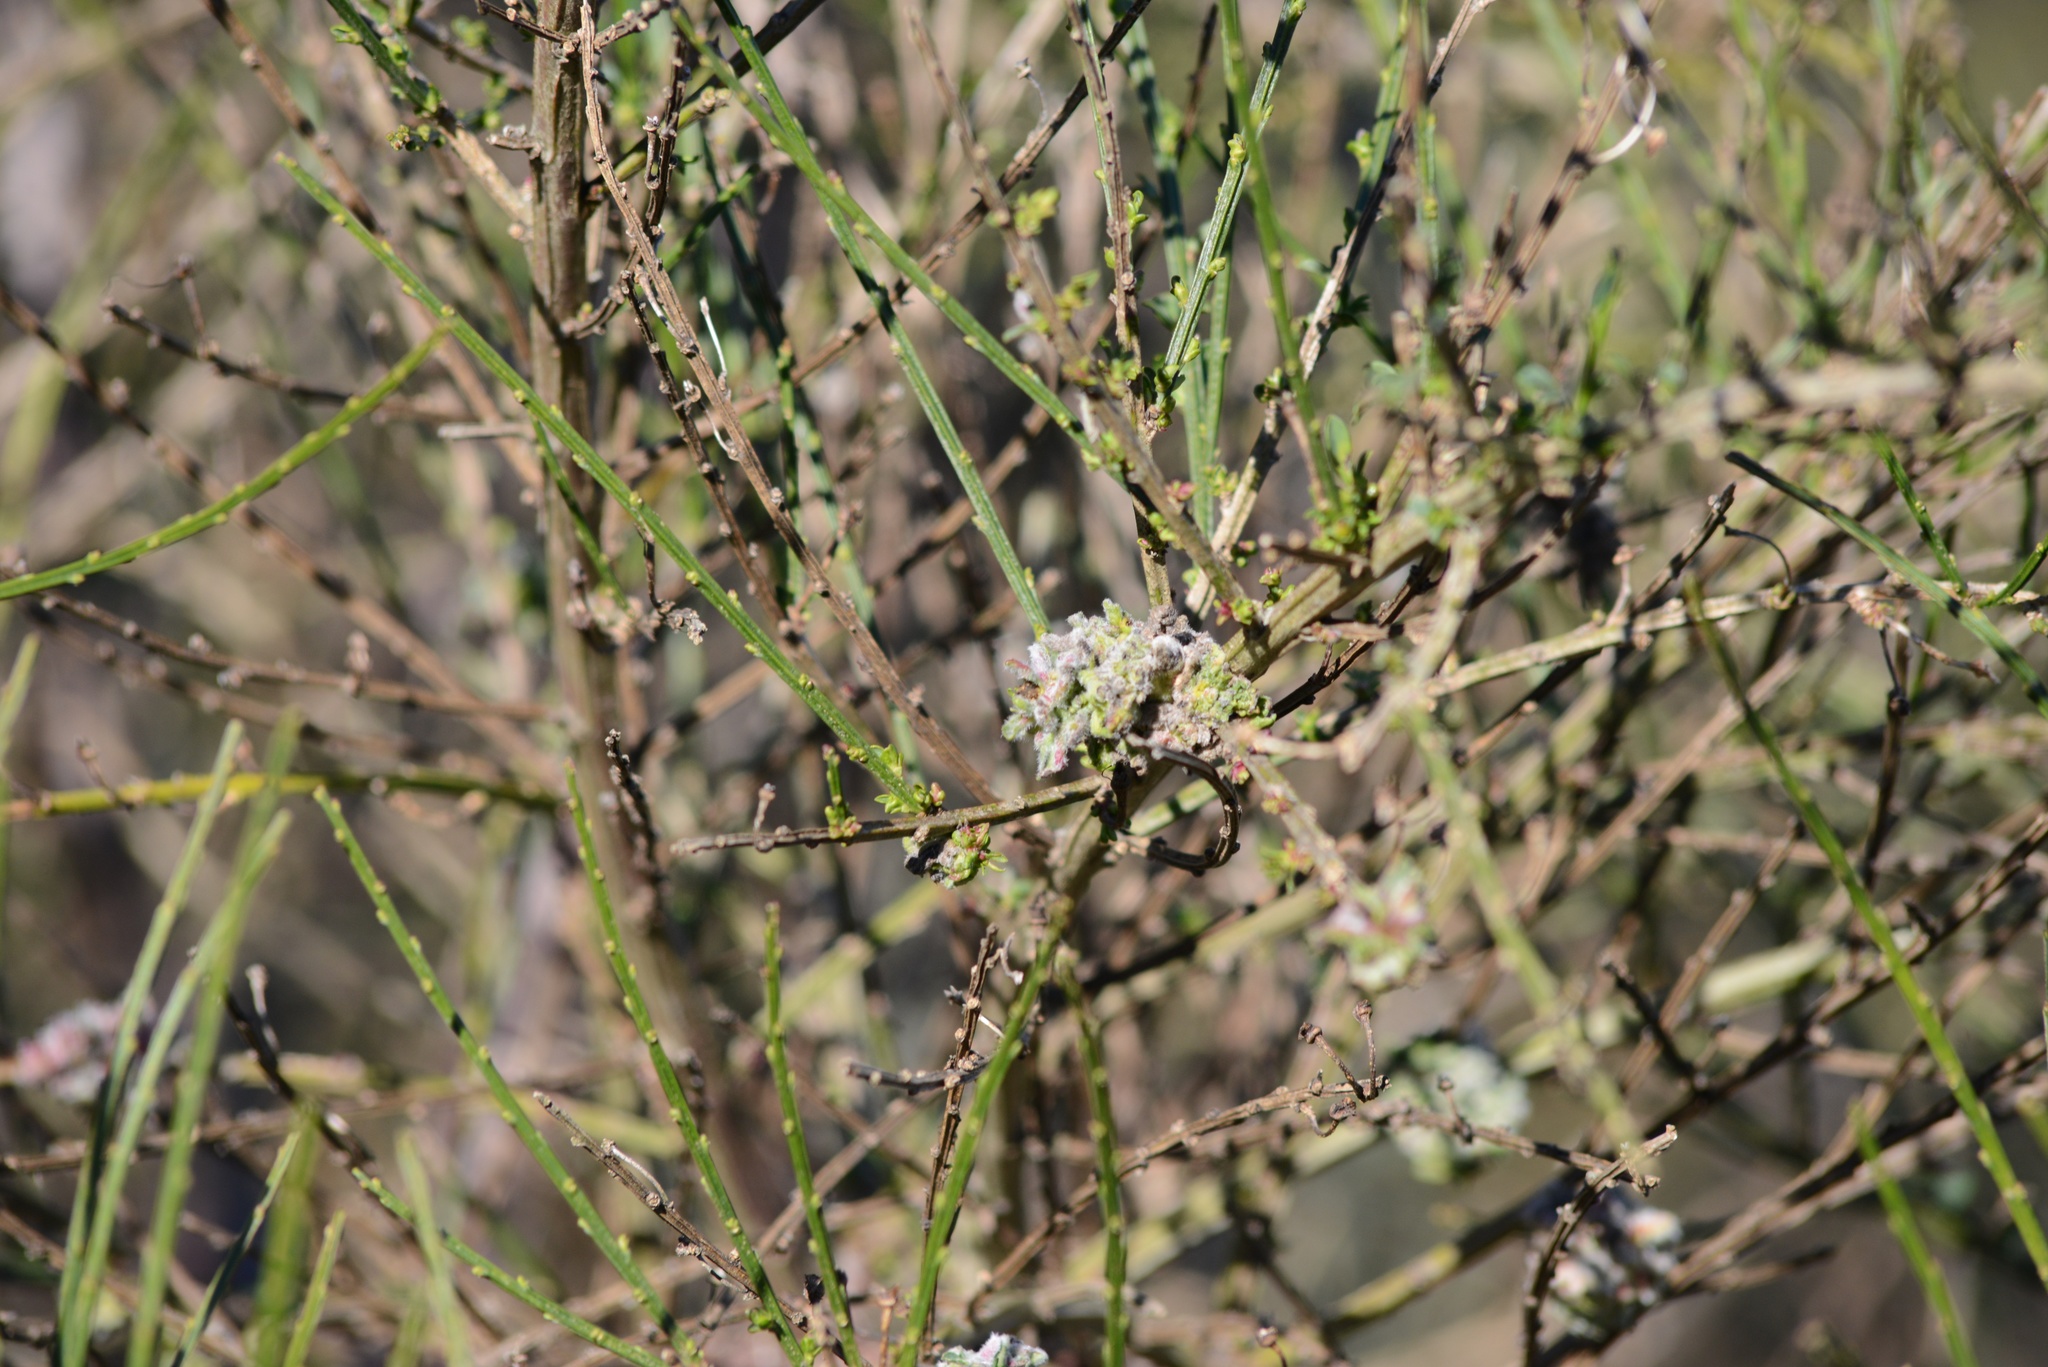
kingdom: Animalia
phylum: Arthropoda
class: Arachnida
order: Trombidiformes
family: Eriophyidae
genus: Aceria
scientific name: Aceria genistae
